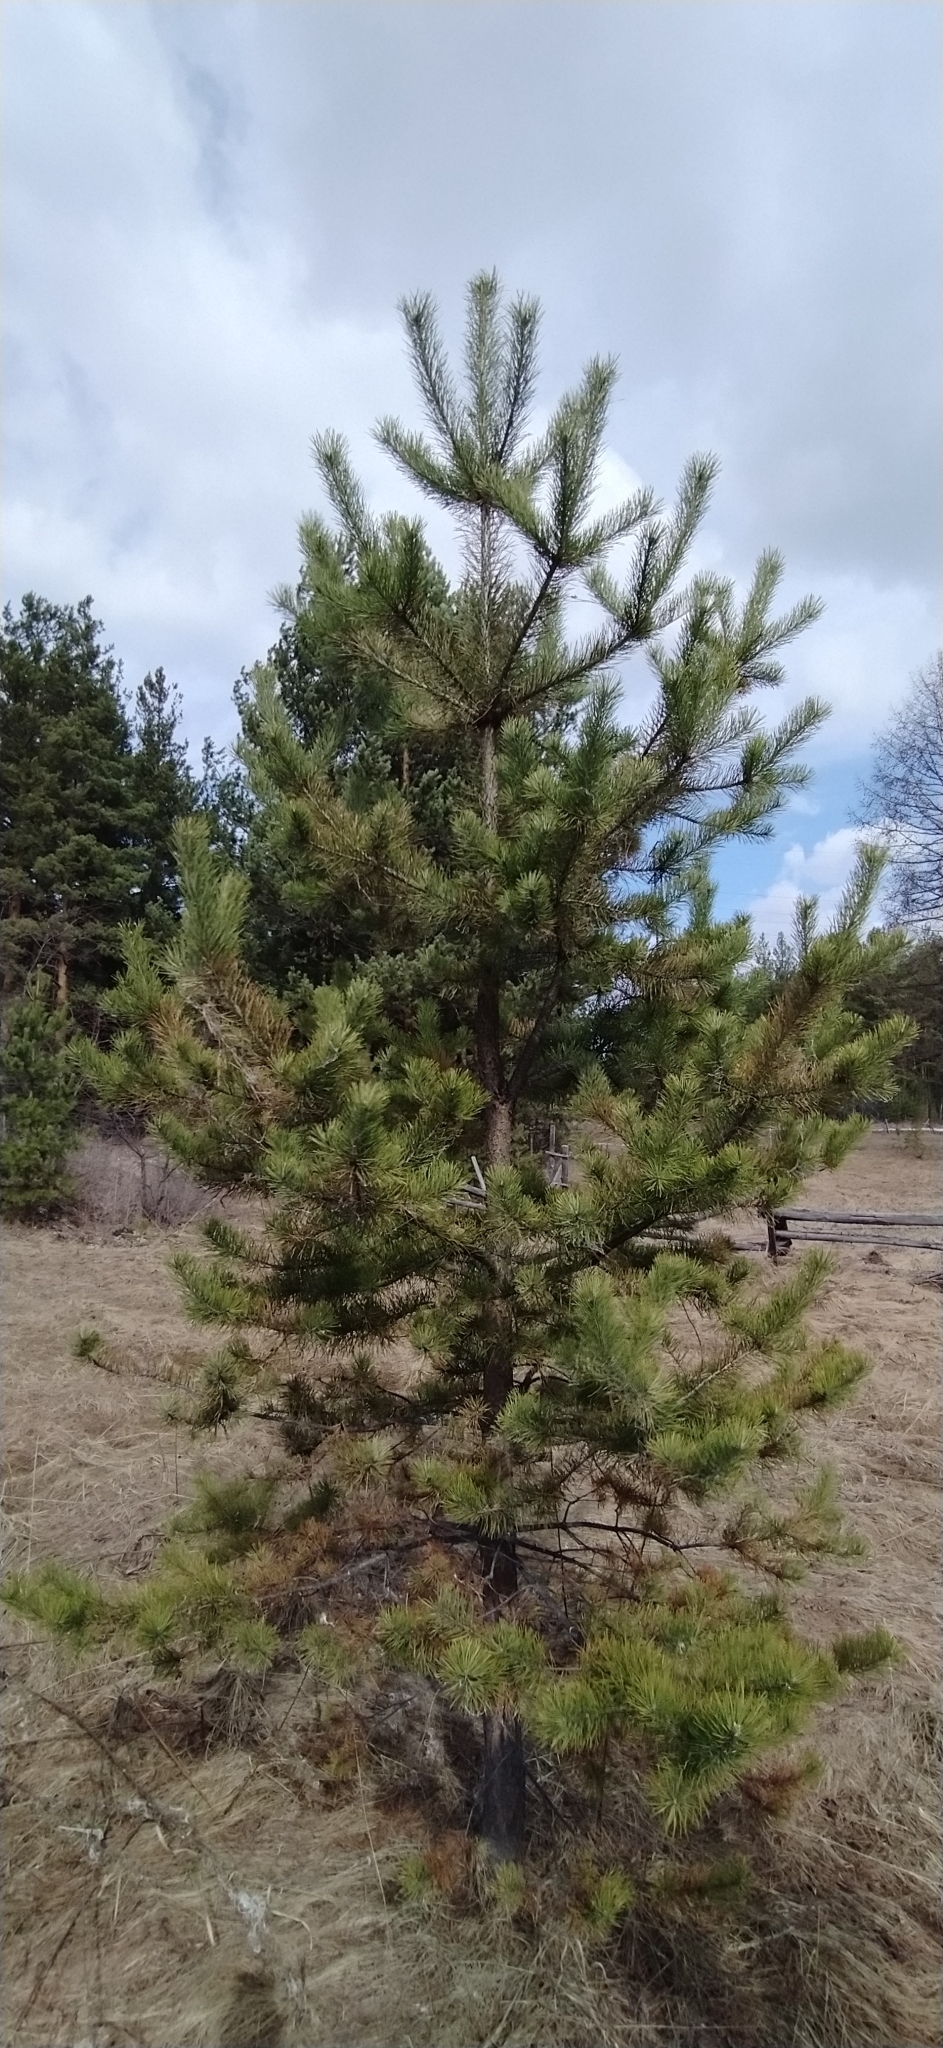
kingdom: Plantae
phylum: Tracheophyta
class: Pinopsida
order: Pinales
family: Pinaceae
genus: Pinus
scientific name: Pinus sylvestris
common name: Scots pine
